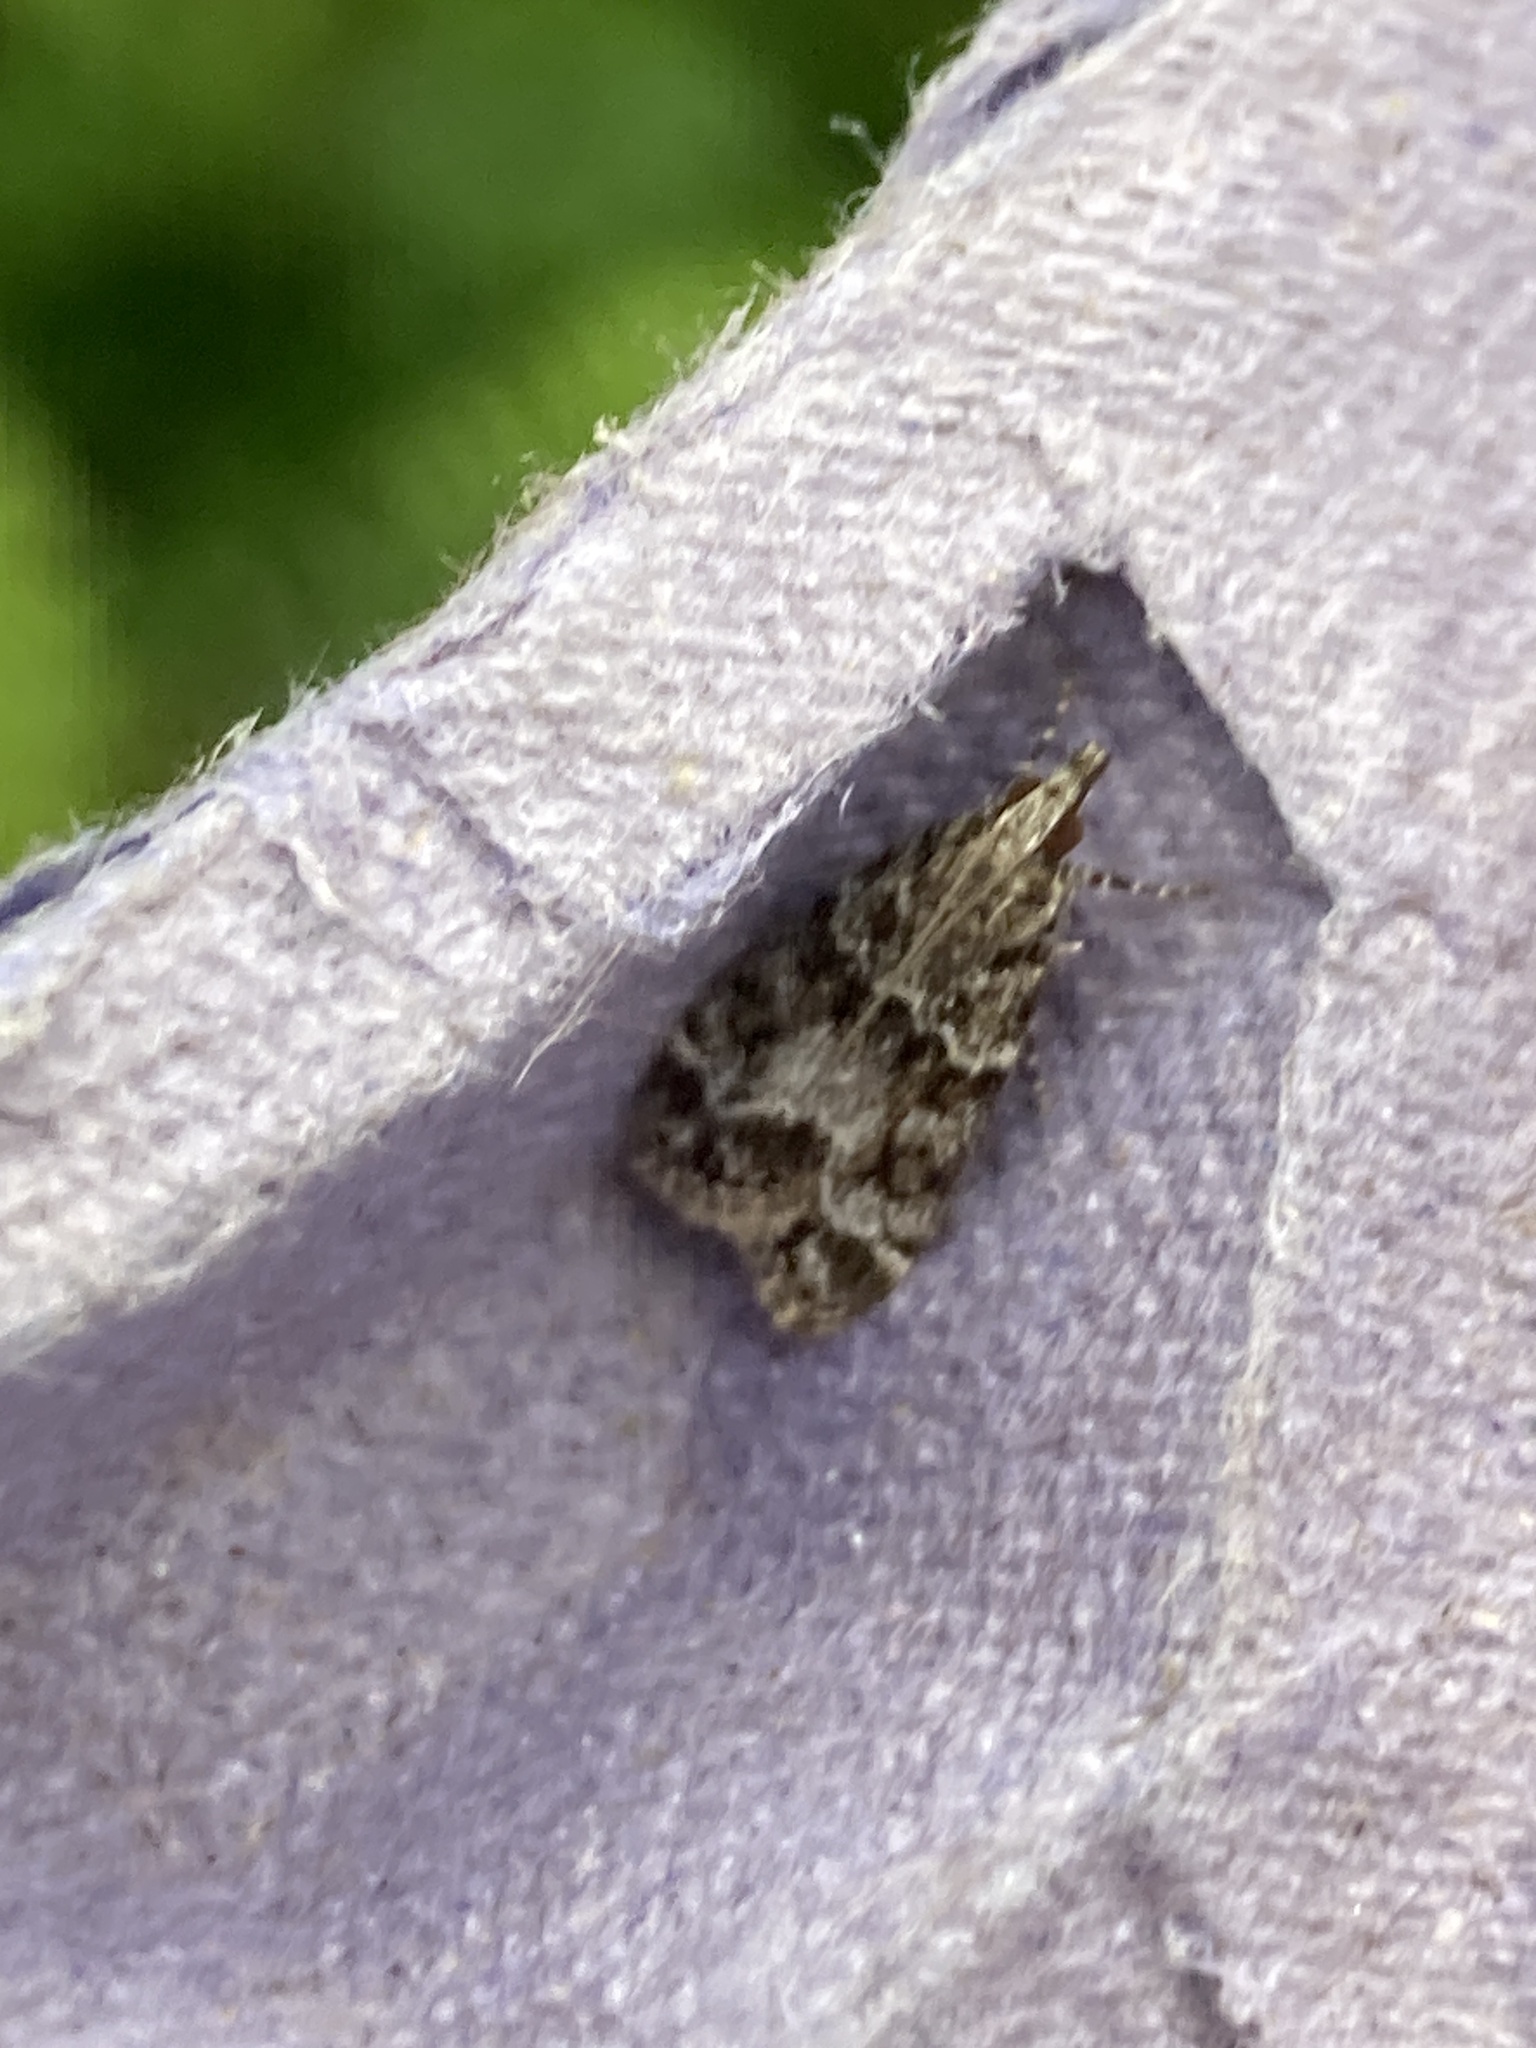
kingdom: Animalia
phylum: Arthropoda
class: Insecta
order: Lepidoptera
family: Crambidae
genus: Eudonia
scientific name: Eudonia mercurella
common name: Small grey
